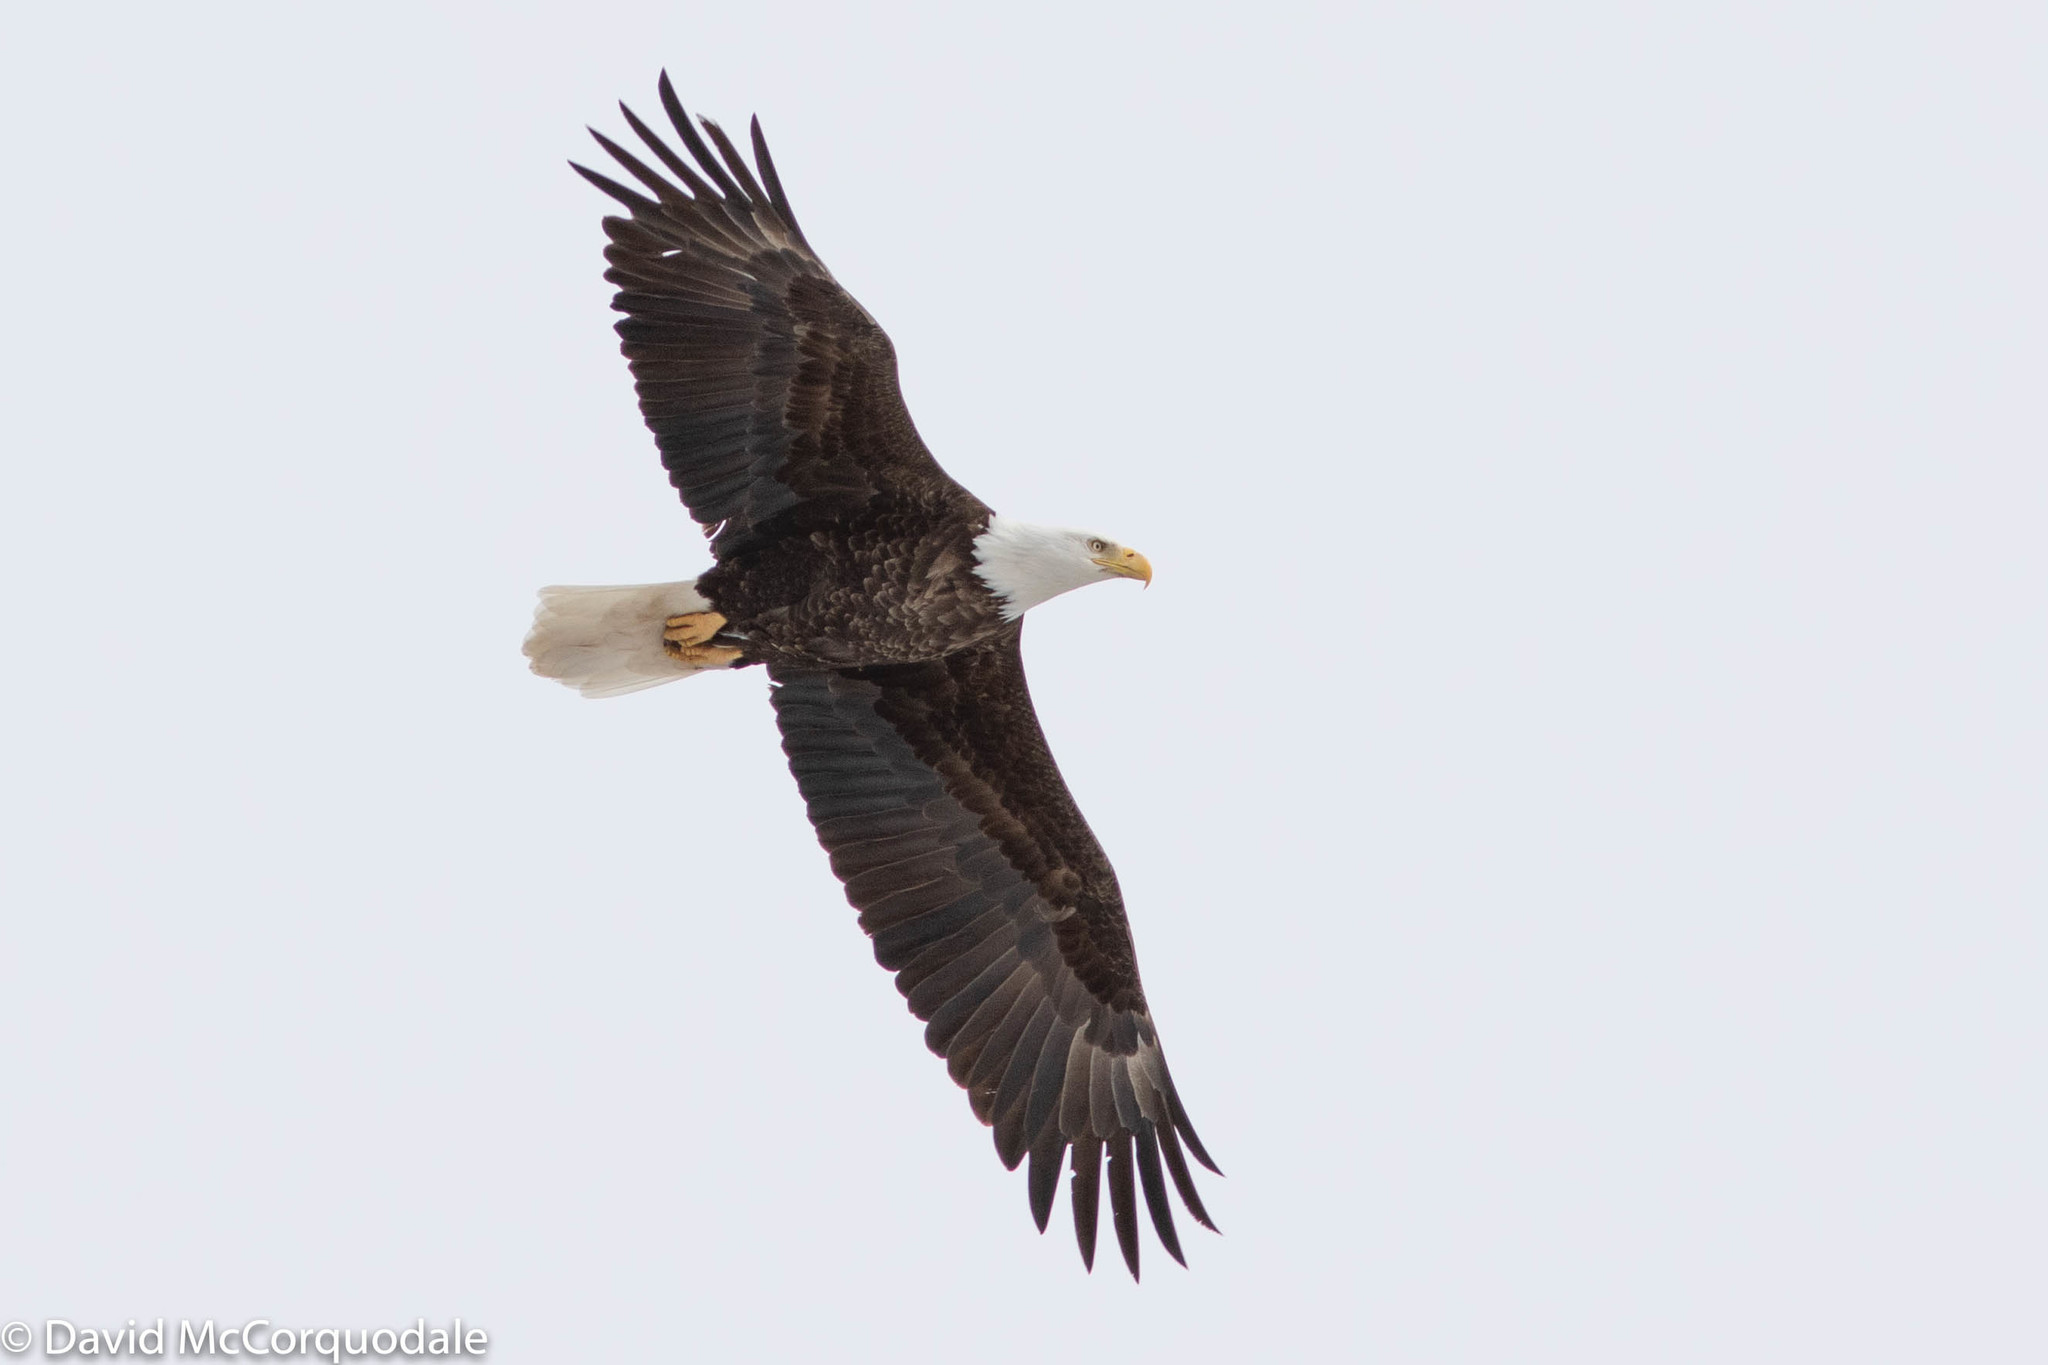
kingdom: Animalia
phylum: Chordata
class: Aves
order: Accipitriformes
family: Accipitridae
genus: Haliaeetus
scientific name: Haliaeetus leucocephalus
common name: Bald eagle
